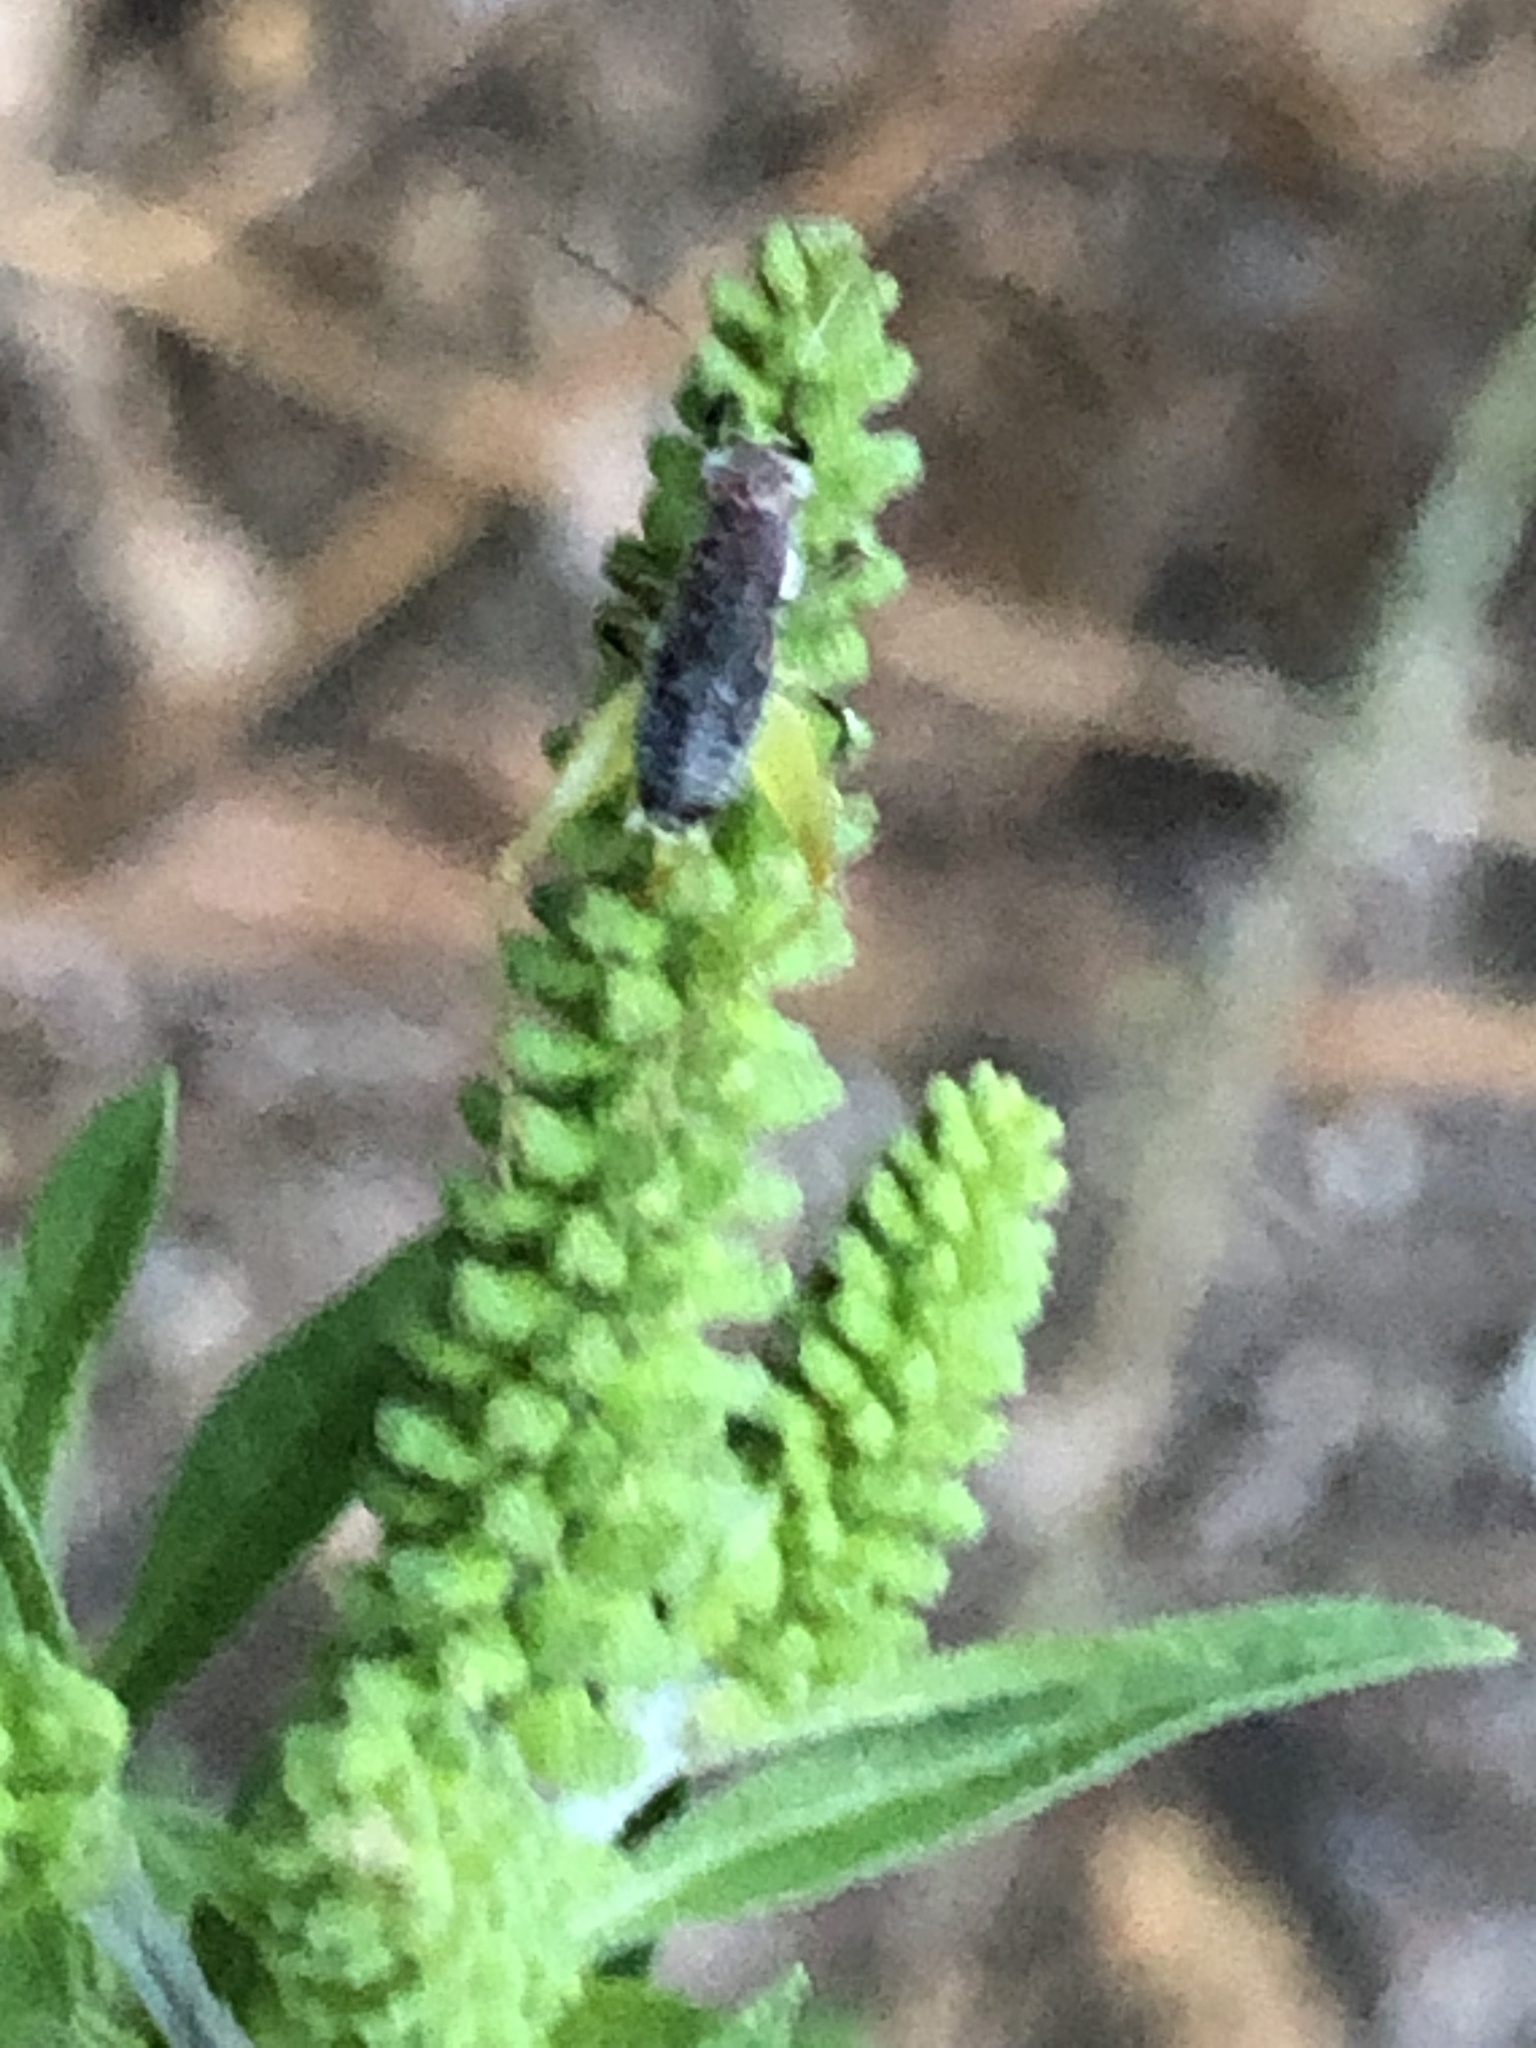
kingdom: Animalia
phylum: Arthropoda
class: Insecta
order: Orthoptera
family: Trigonidiidae
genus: Phyllopalpus
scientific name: Phyllopalpus pulchellus
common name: Handsome trig
